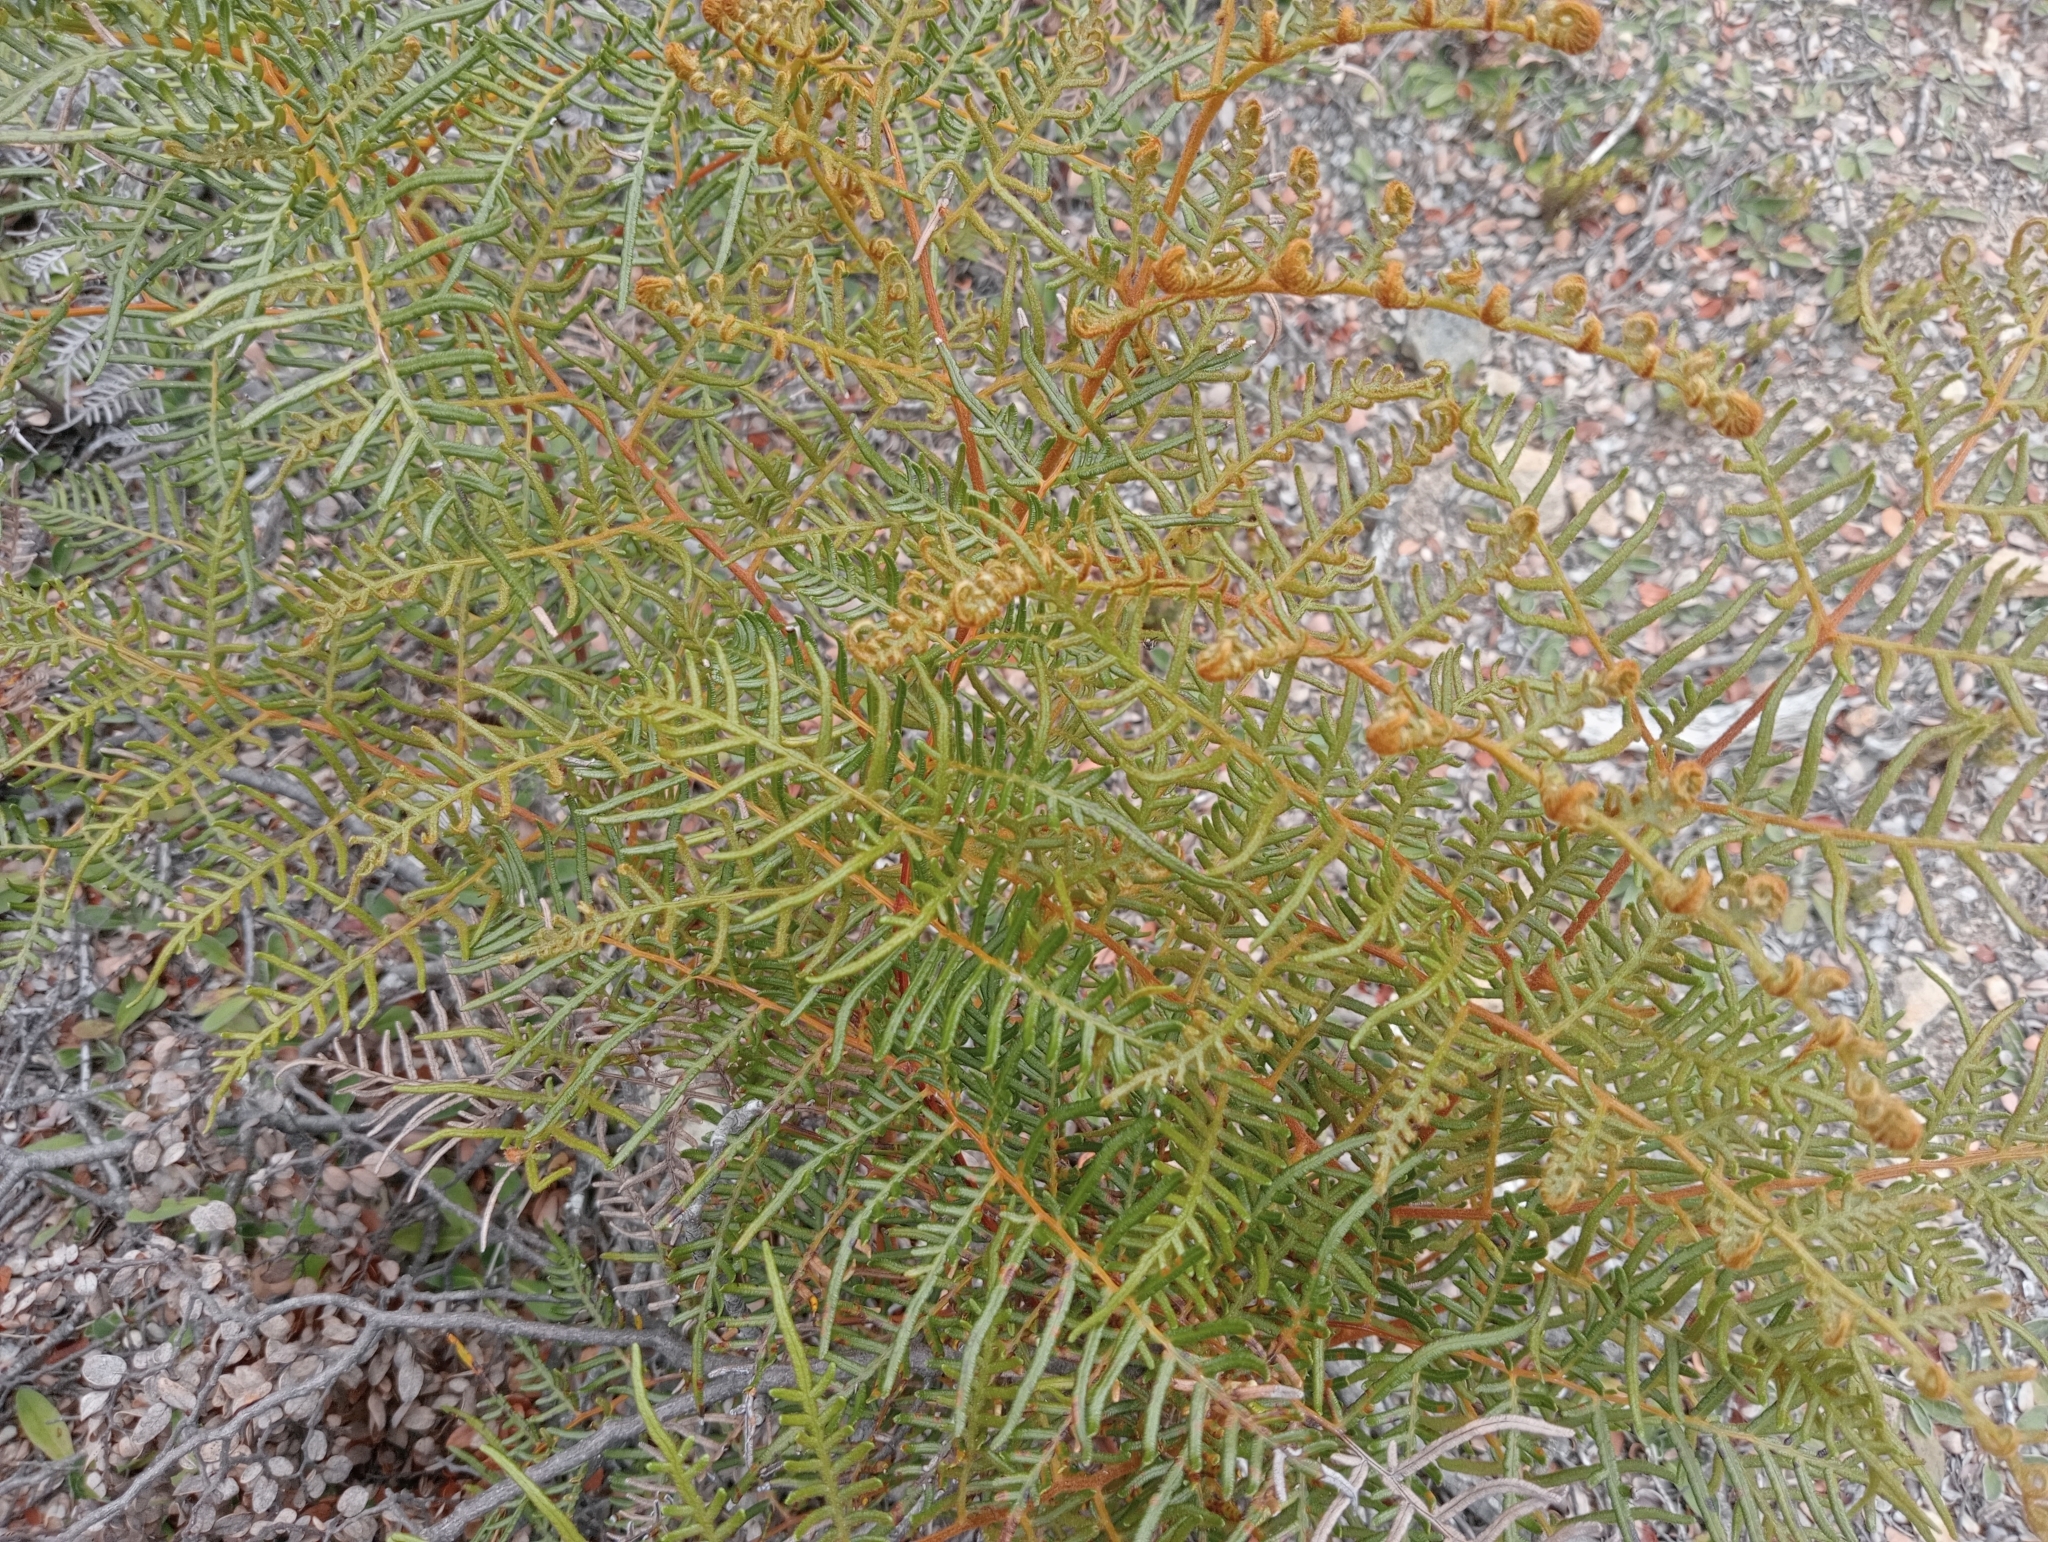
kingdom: Plantae
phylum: Tracheophyta
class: Polypodiopsida
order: Polypodiales
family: Dennstaedtiaceae
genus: Pteridium
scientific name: Pteridium esculentum
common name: Bracken fern
